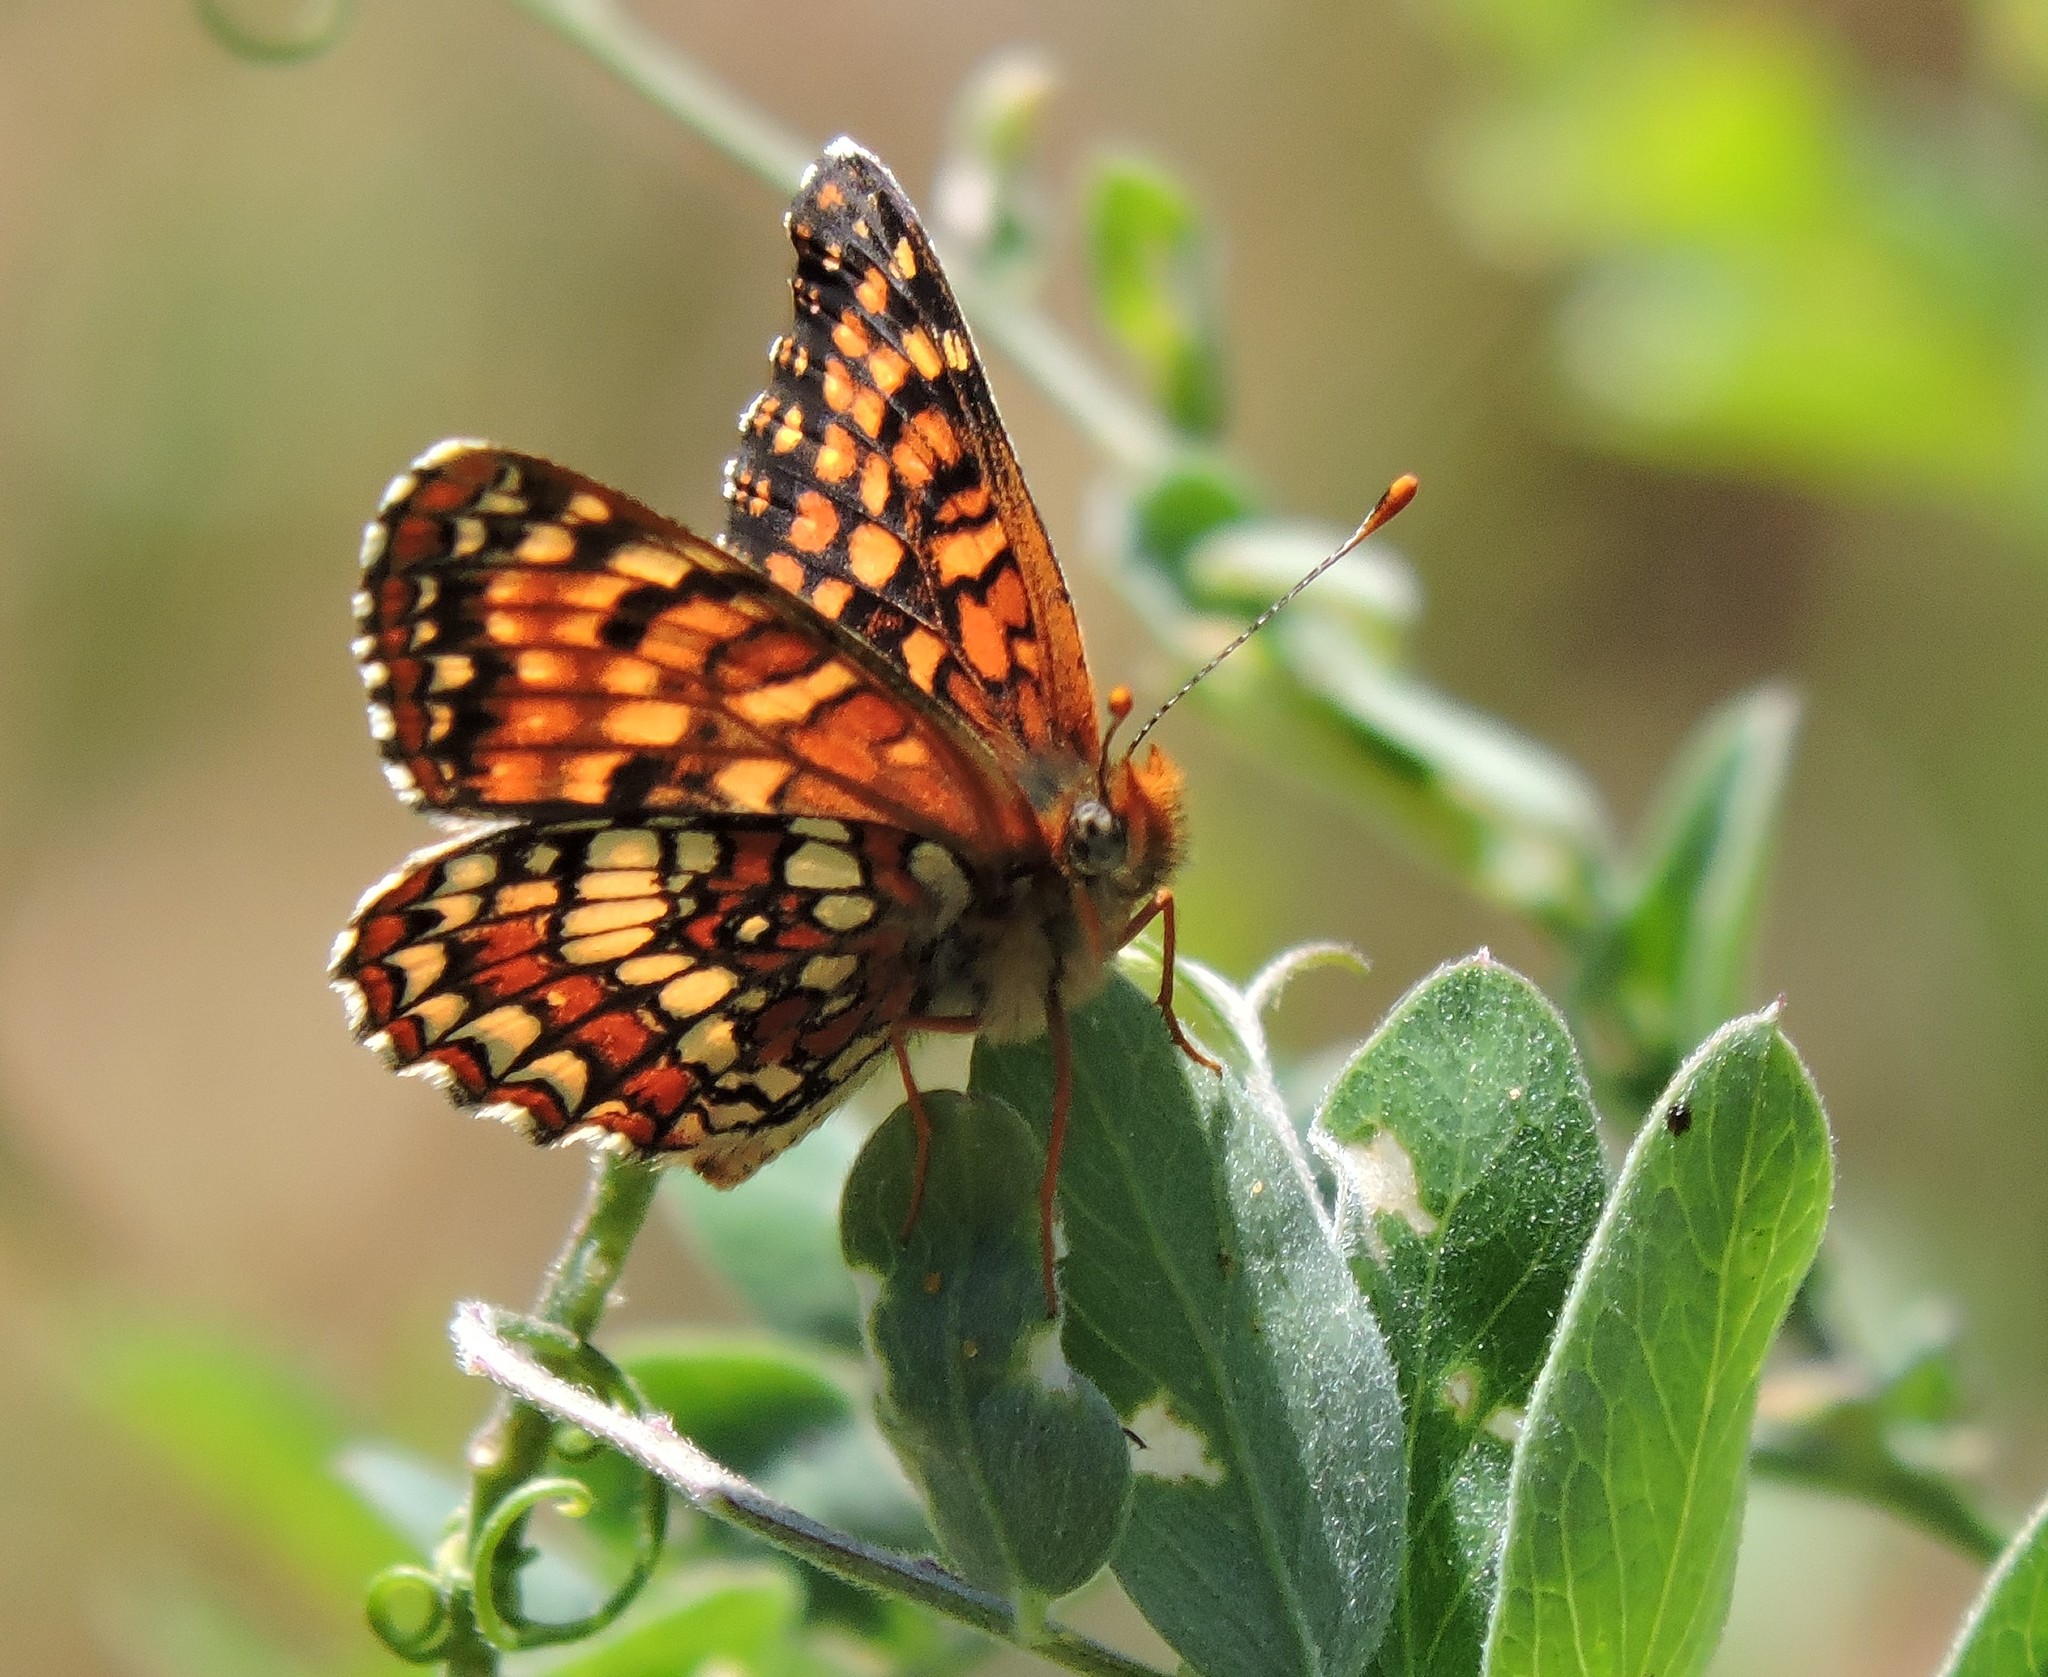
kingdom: Animalia
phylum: Arthropoda
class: Insecta
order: Lepidoptera
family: Nymphalidae
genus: Chlosyne
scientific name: Chlosyne palla
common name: Northern checkerspot
